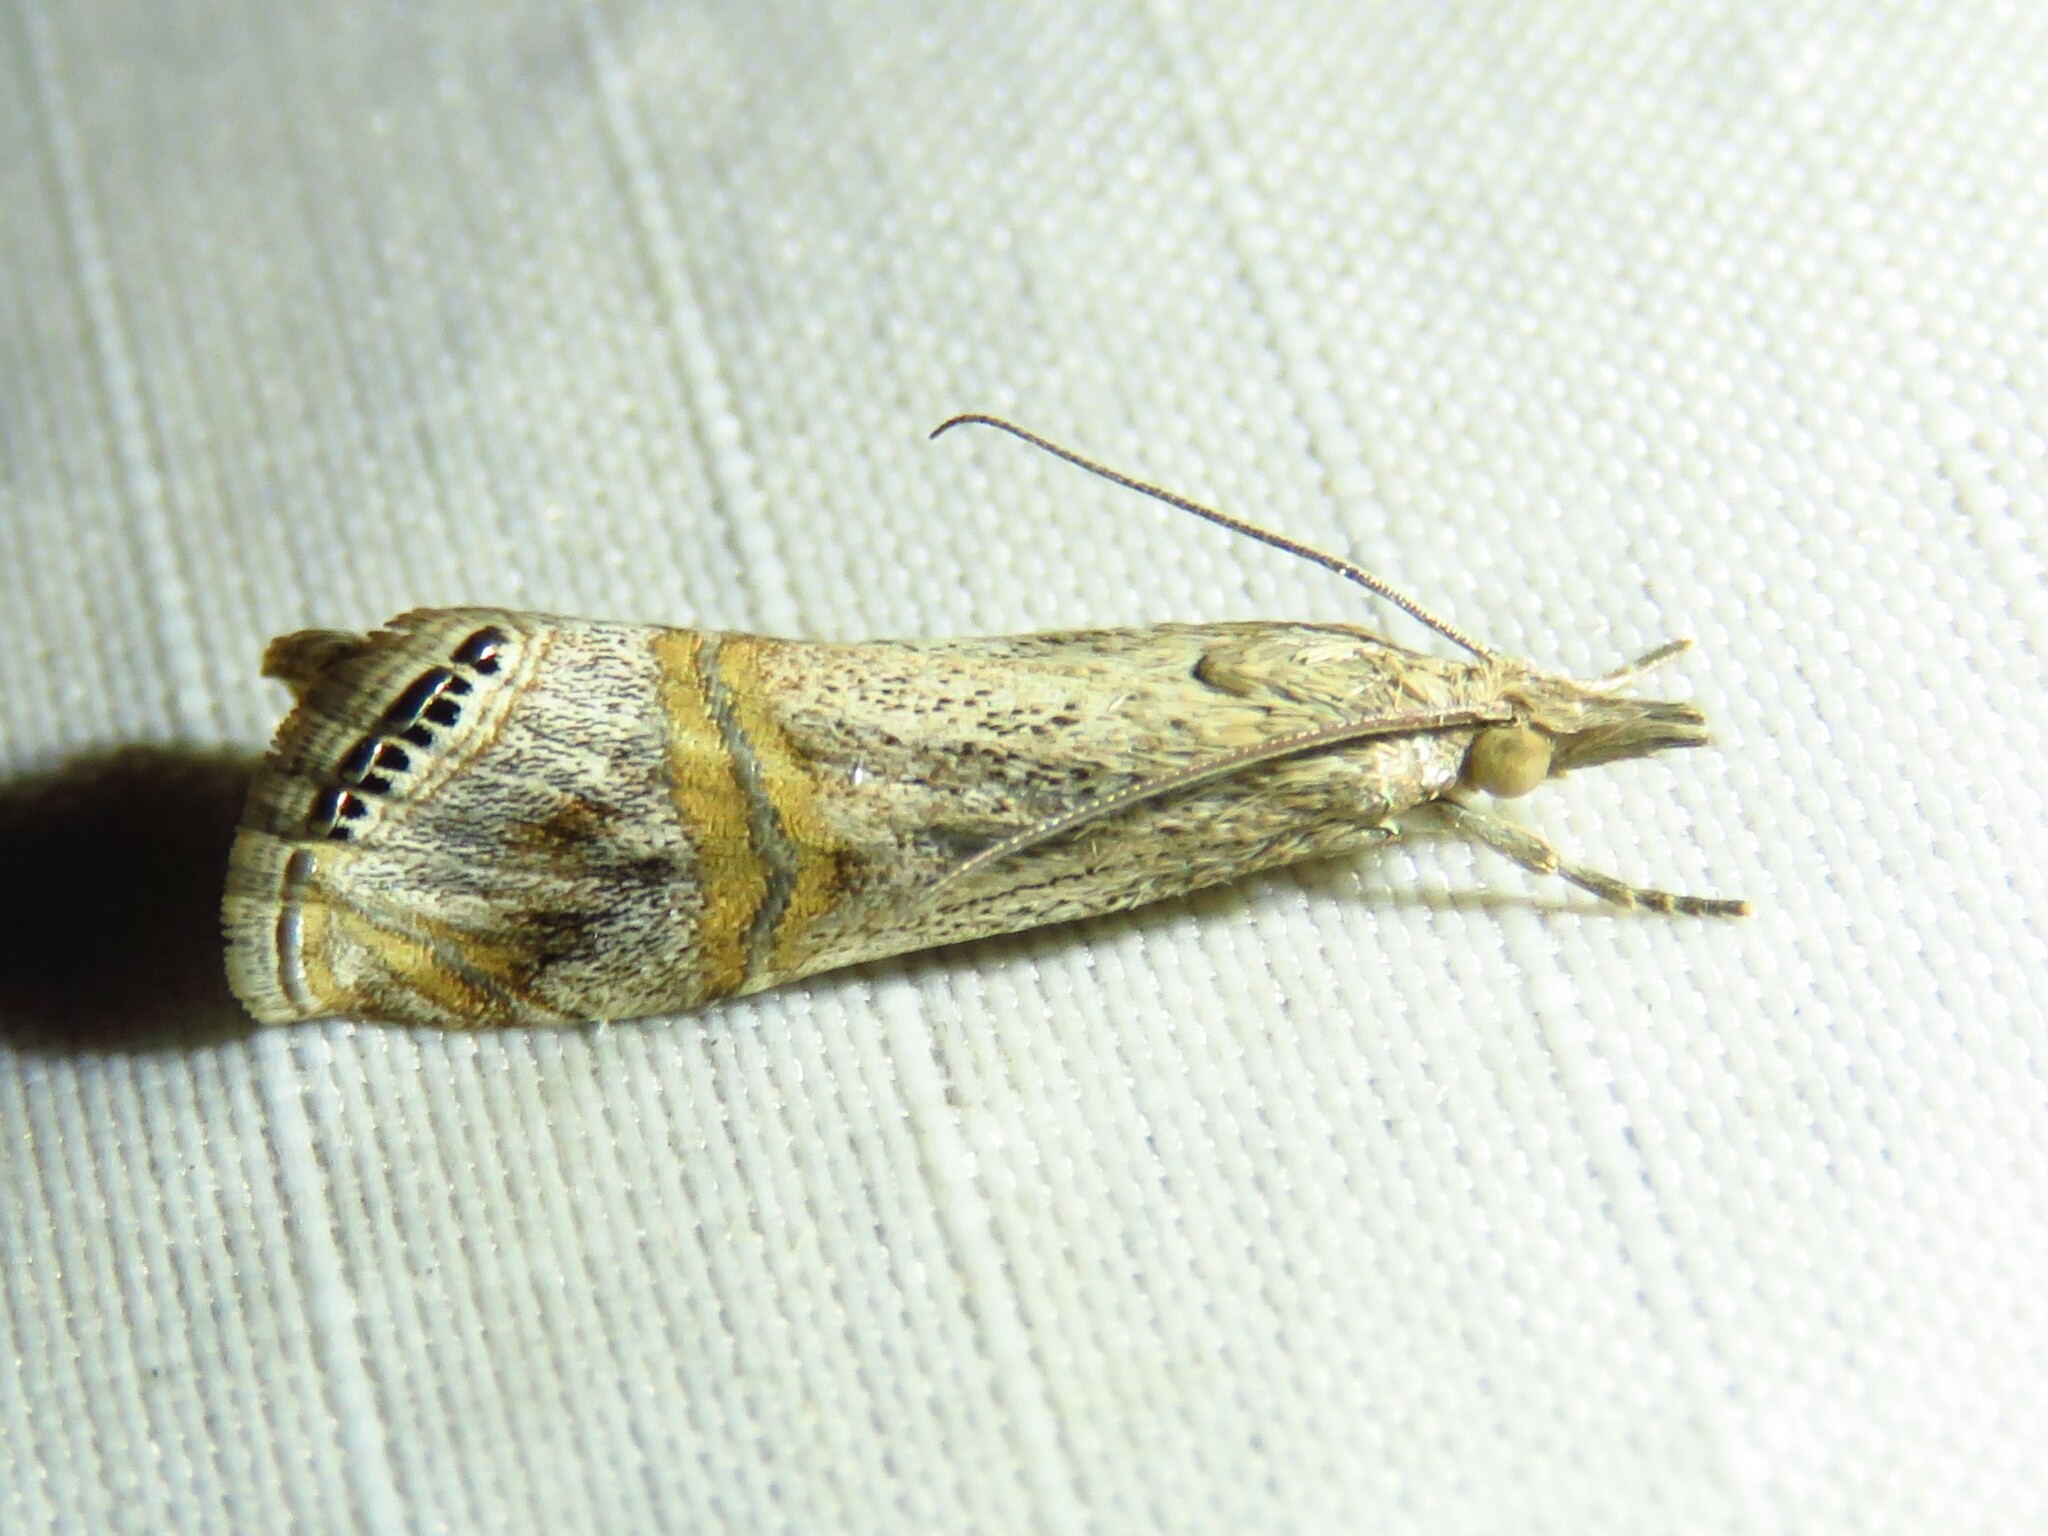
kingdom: Animalia
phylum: Arthropoda
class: Insecta
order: Lepidoptera
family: Crambidae
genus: Euchromius
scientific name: Euchromius ocellea
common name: Necklace veneer moth
